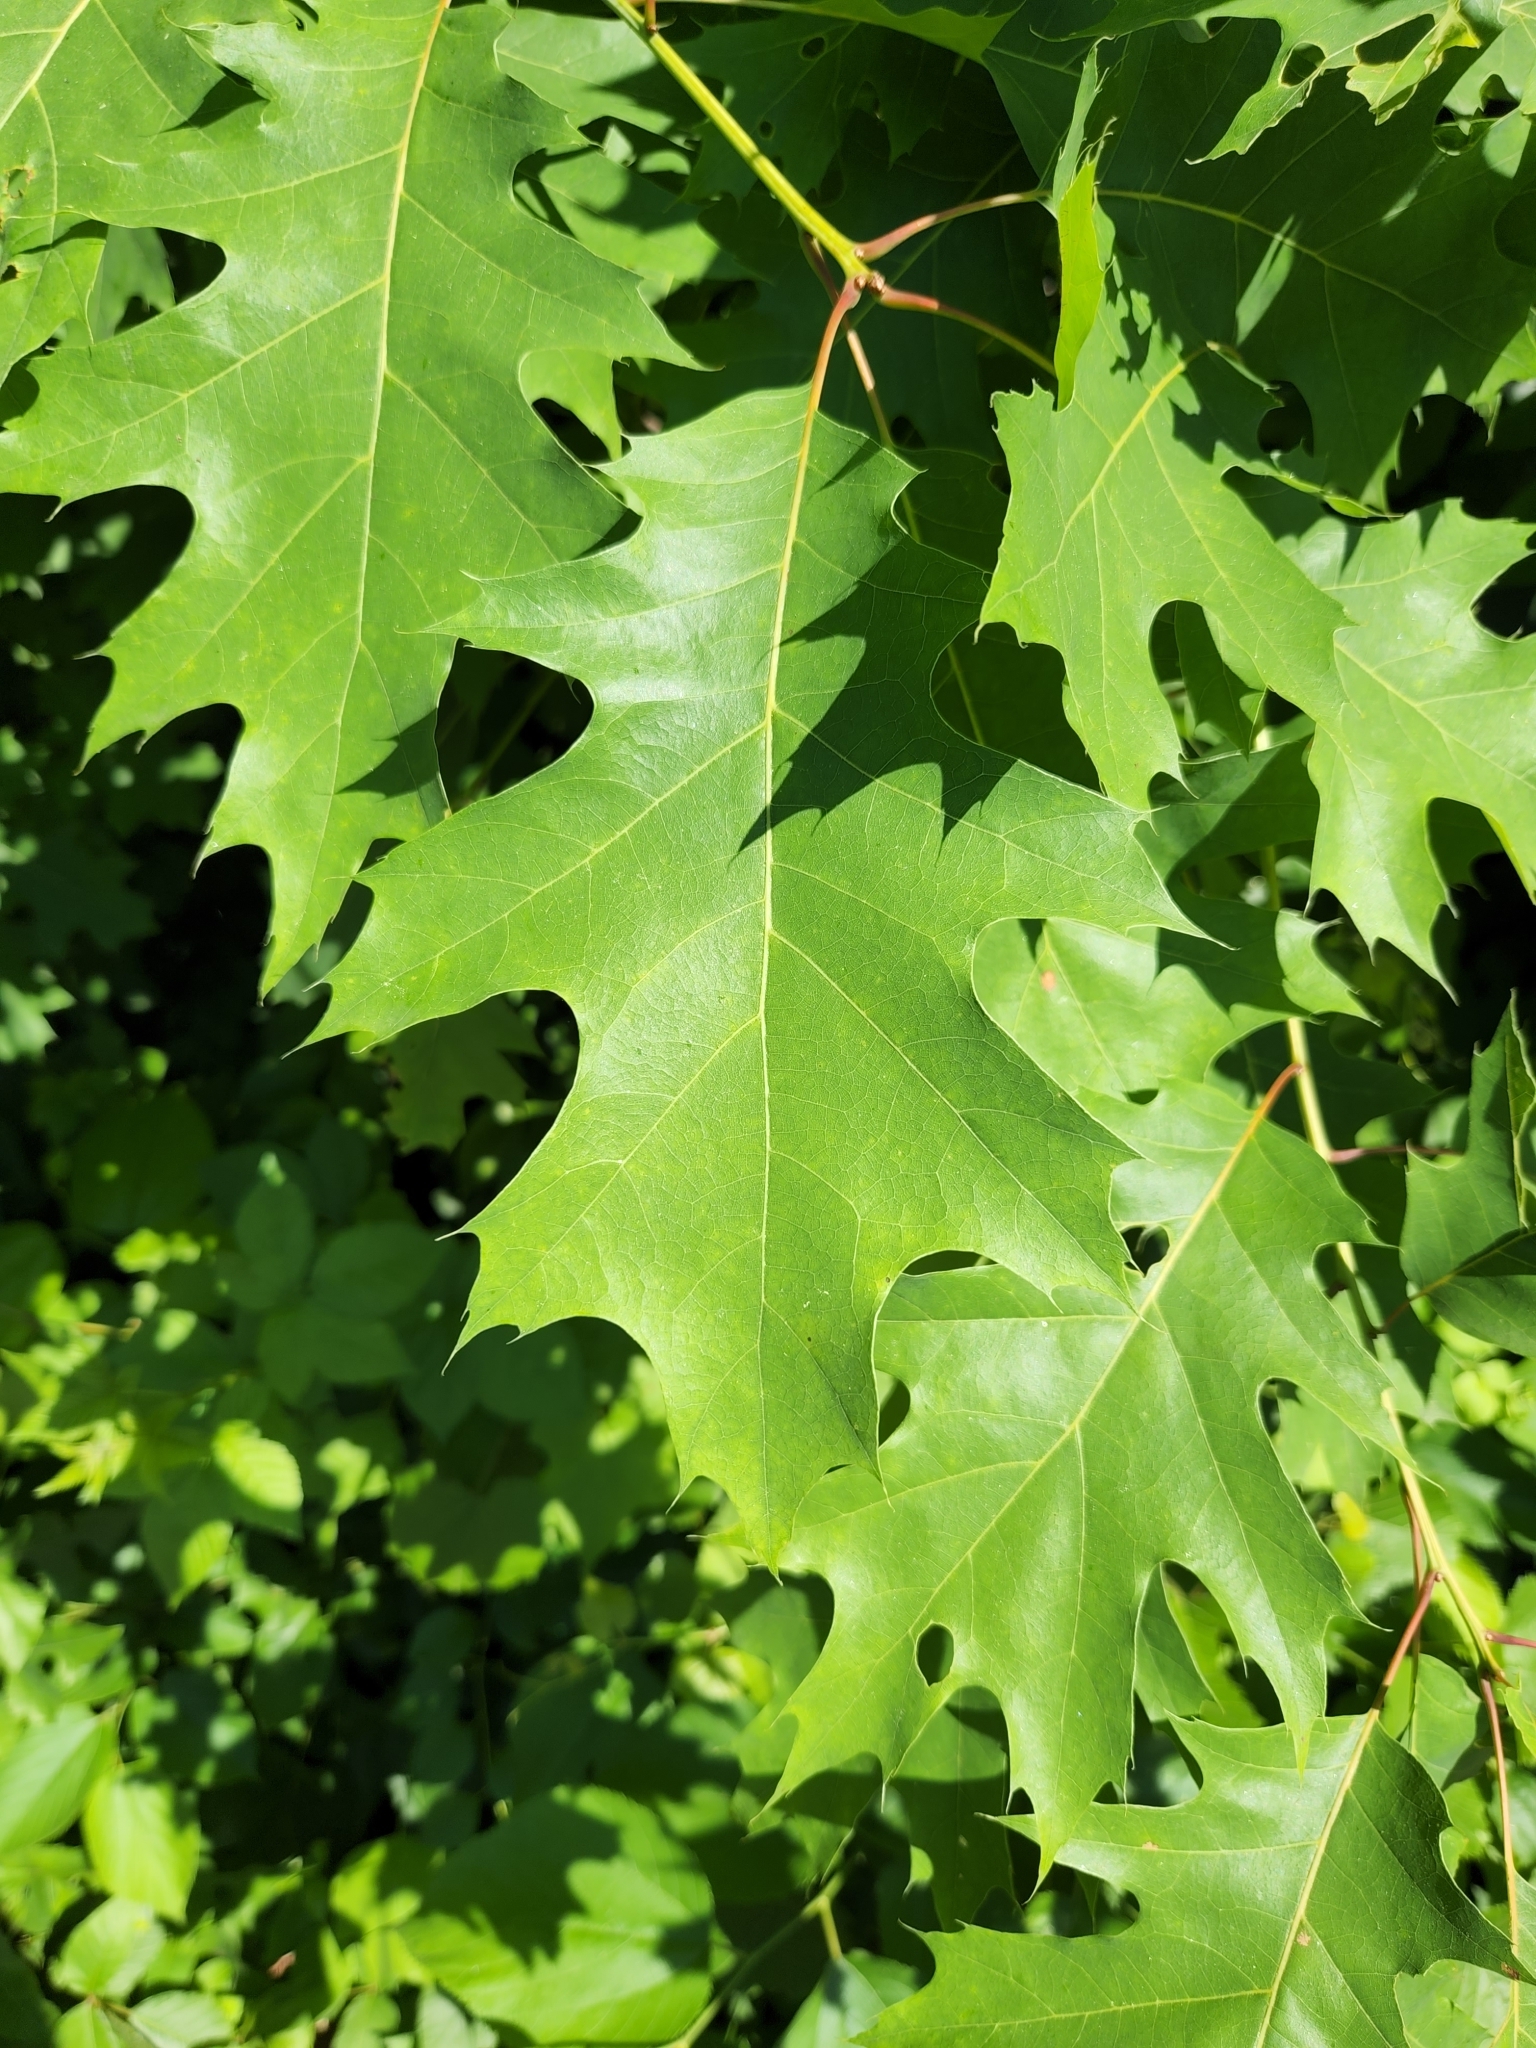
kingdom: Plantae
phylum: Tracheophyta
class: Magnoliopsida
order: Fagales
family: Fagaceae
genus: Quercus
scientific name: Quercus rubra
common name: Red oak
